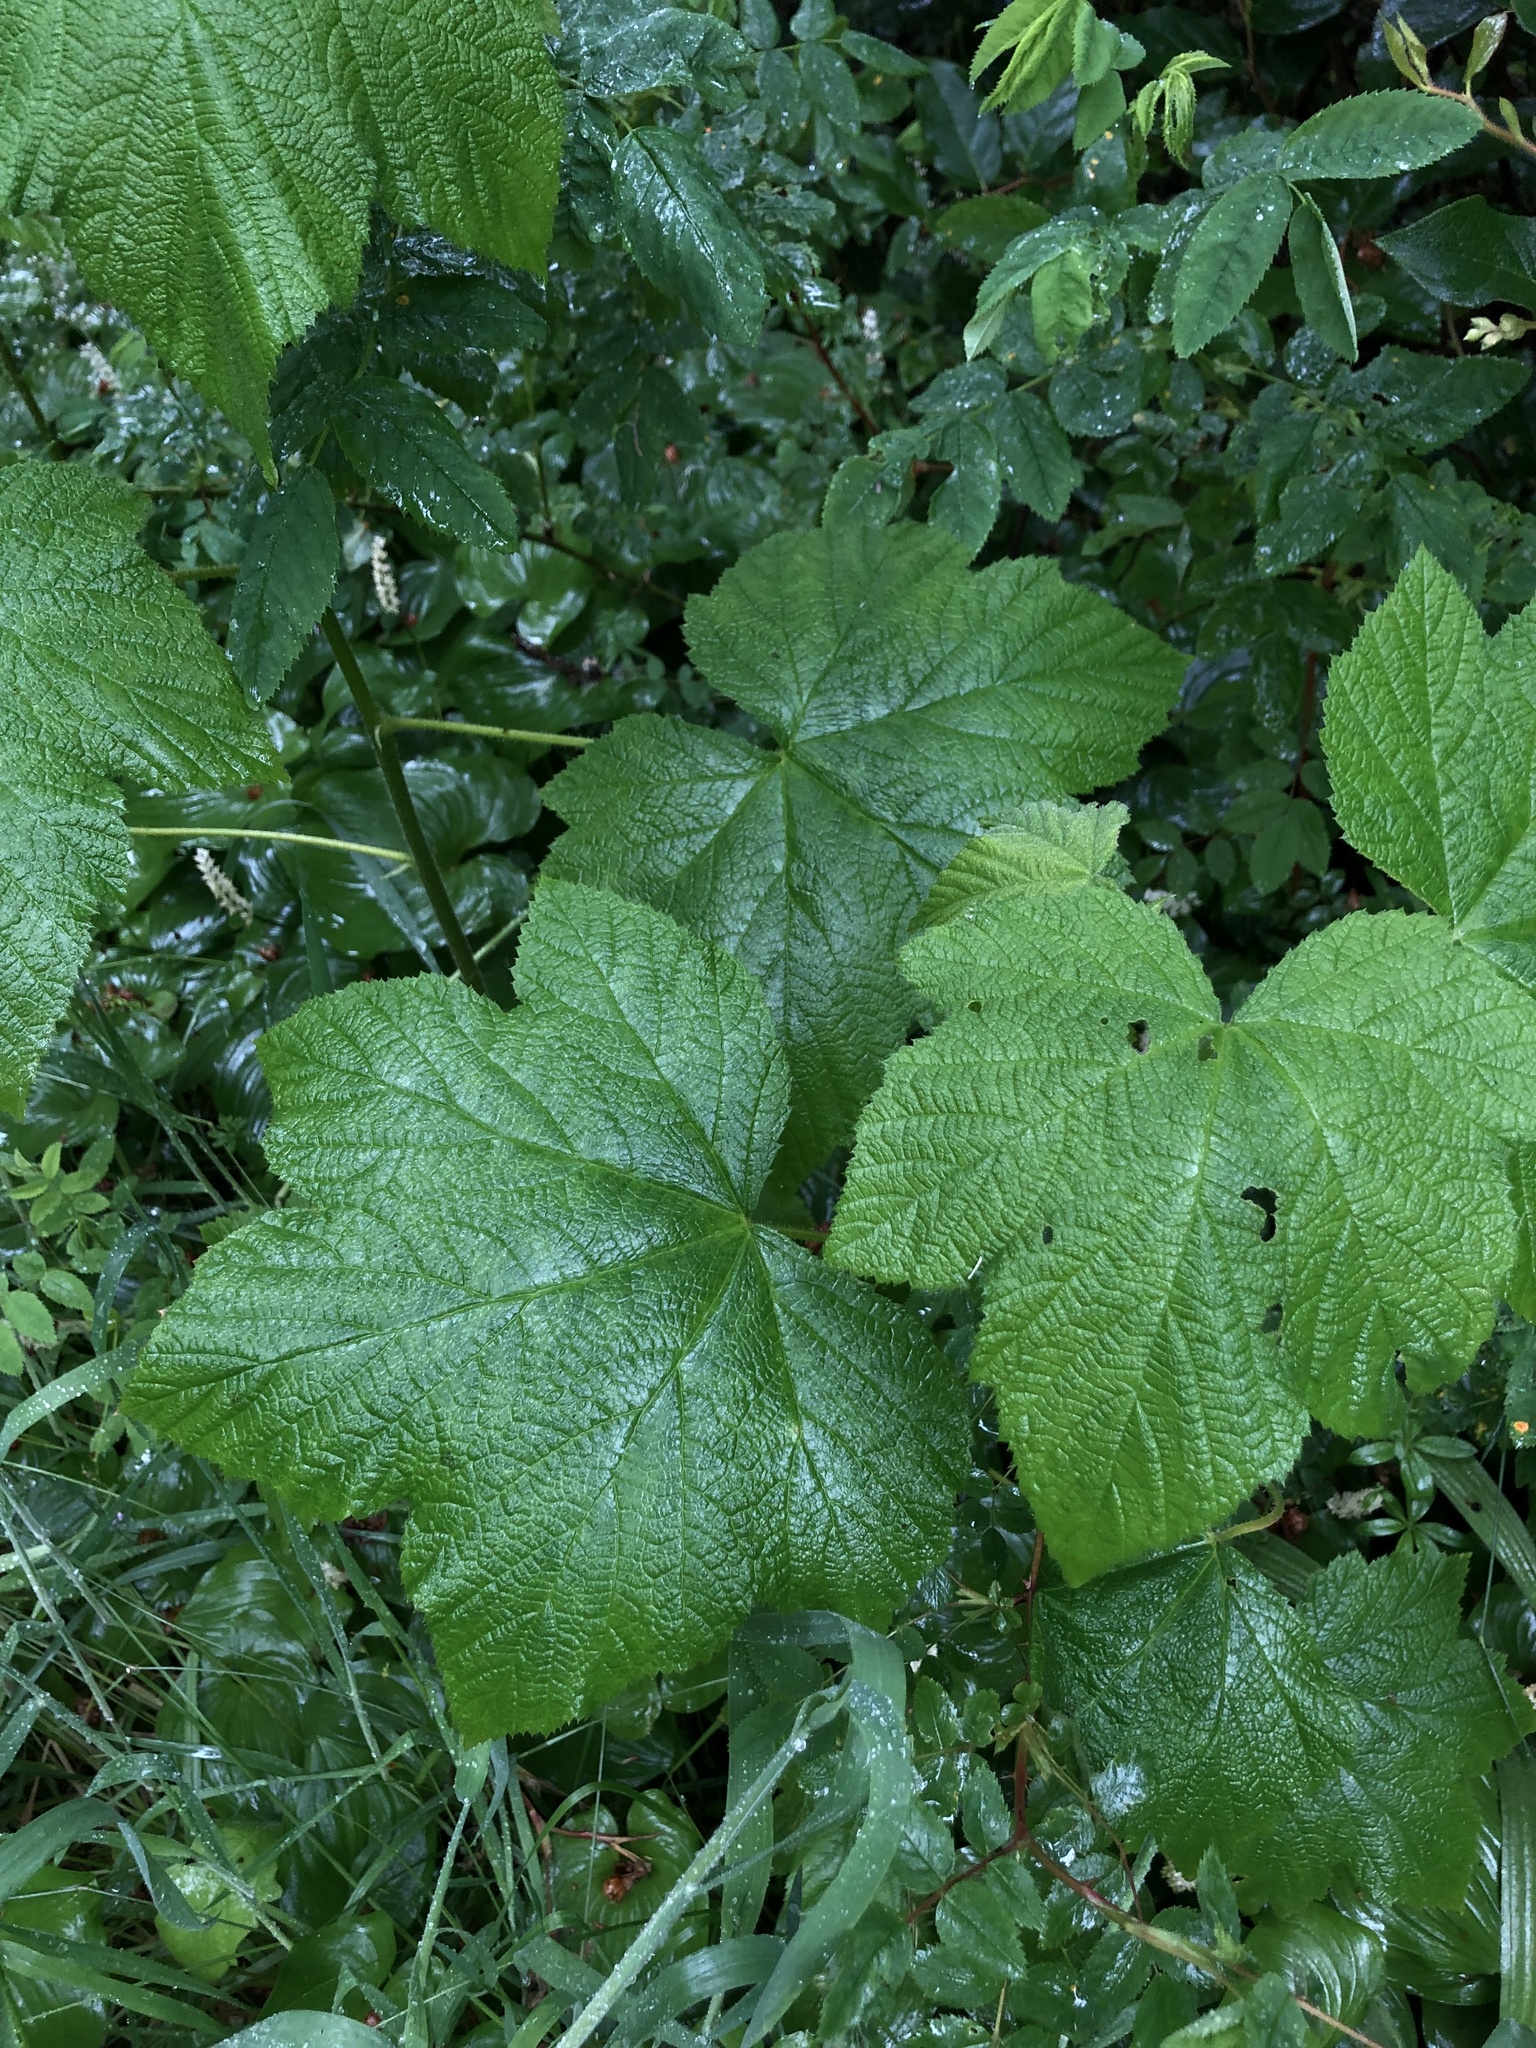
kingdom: Plantae
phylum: Tracheophyta
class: Magnoliopsida
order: Rosales
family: Rosaceae
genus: Rubus
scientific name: Rubus parviflorus
